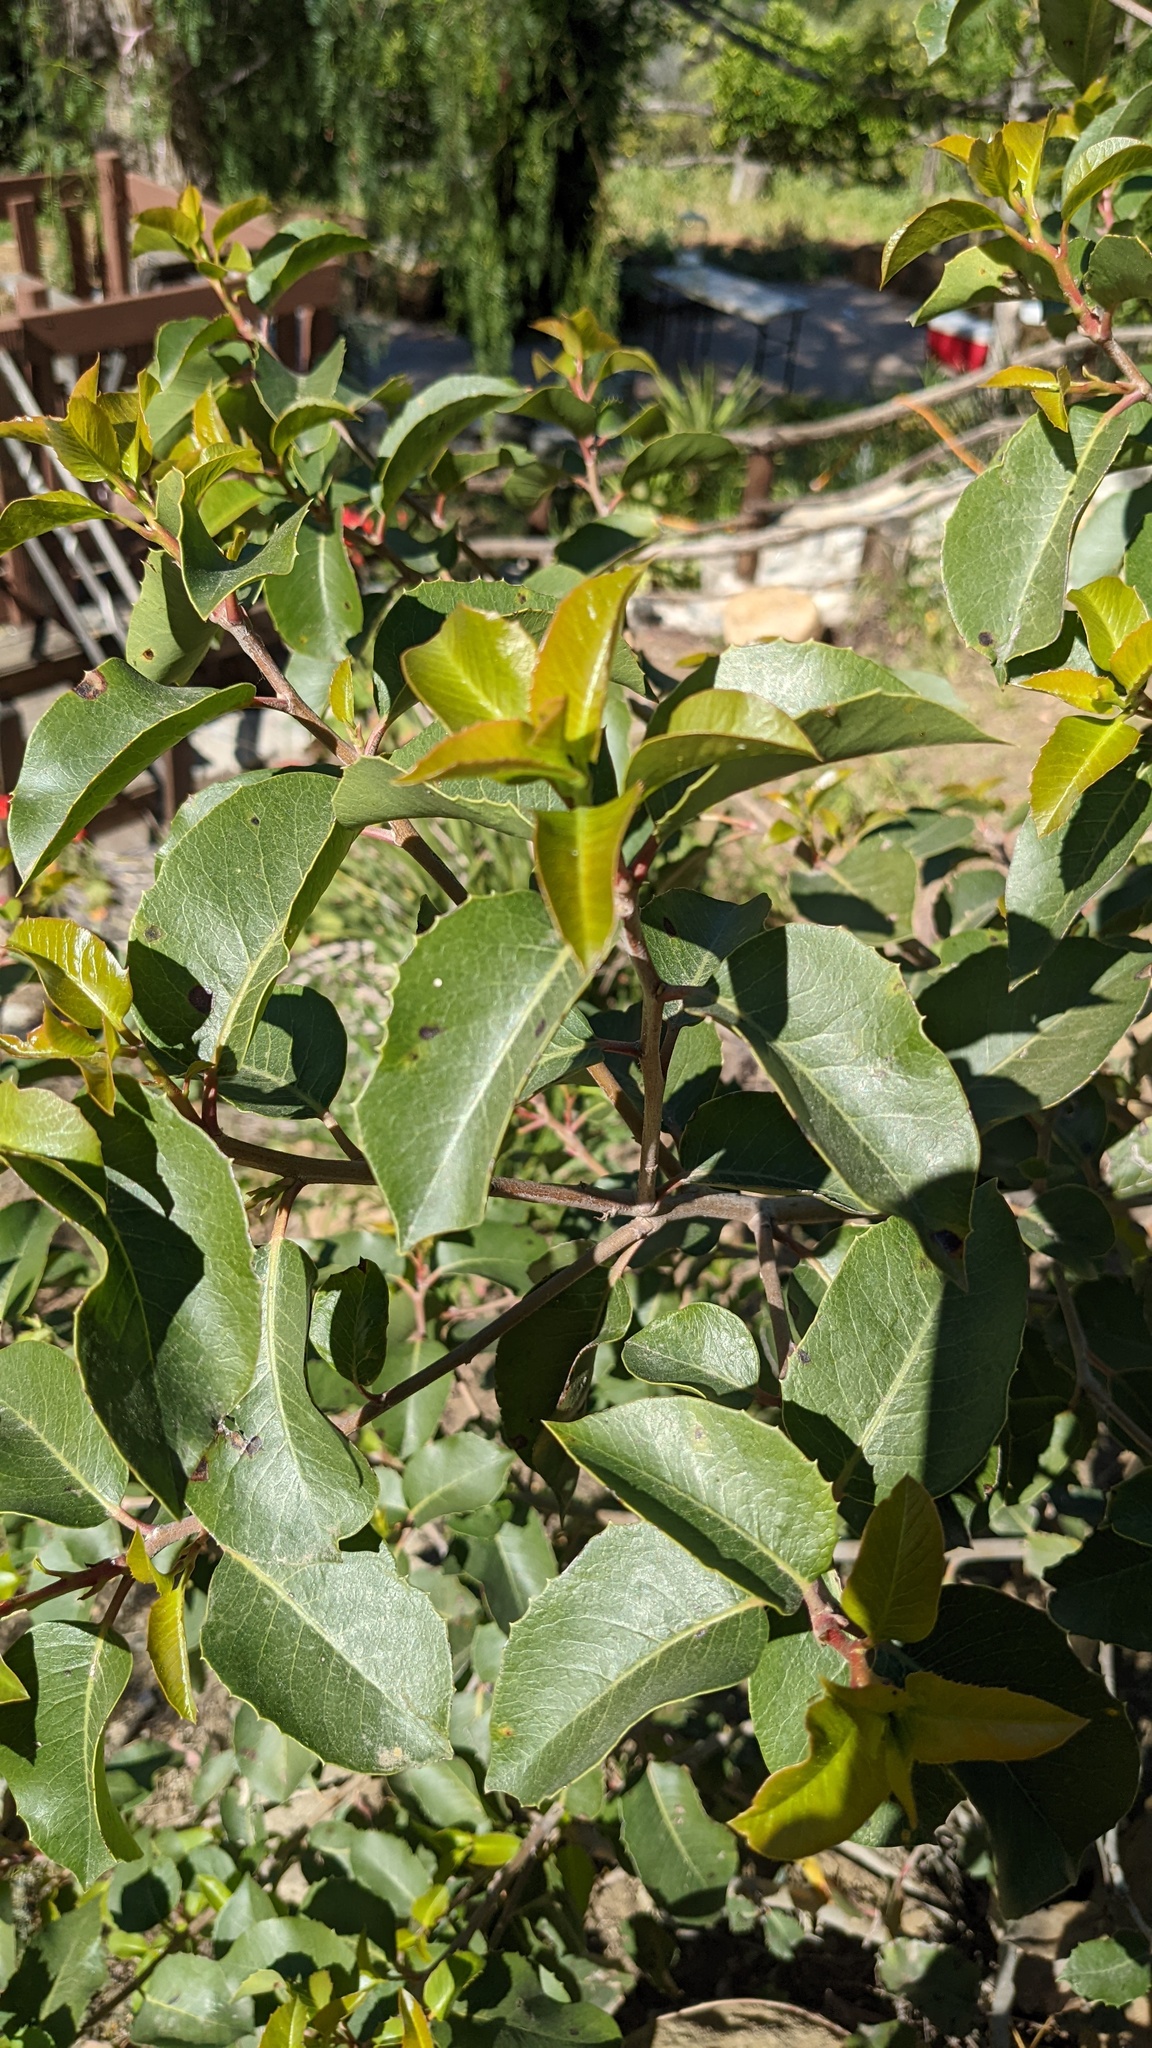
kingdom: Plantae
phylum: Tracheophyta
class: Magnoliopsida
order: Sapindales
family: Anacardiaceae
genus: Rhus
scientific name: Rhus ovata
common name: Sugar sumac
